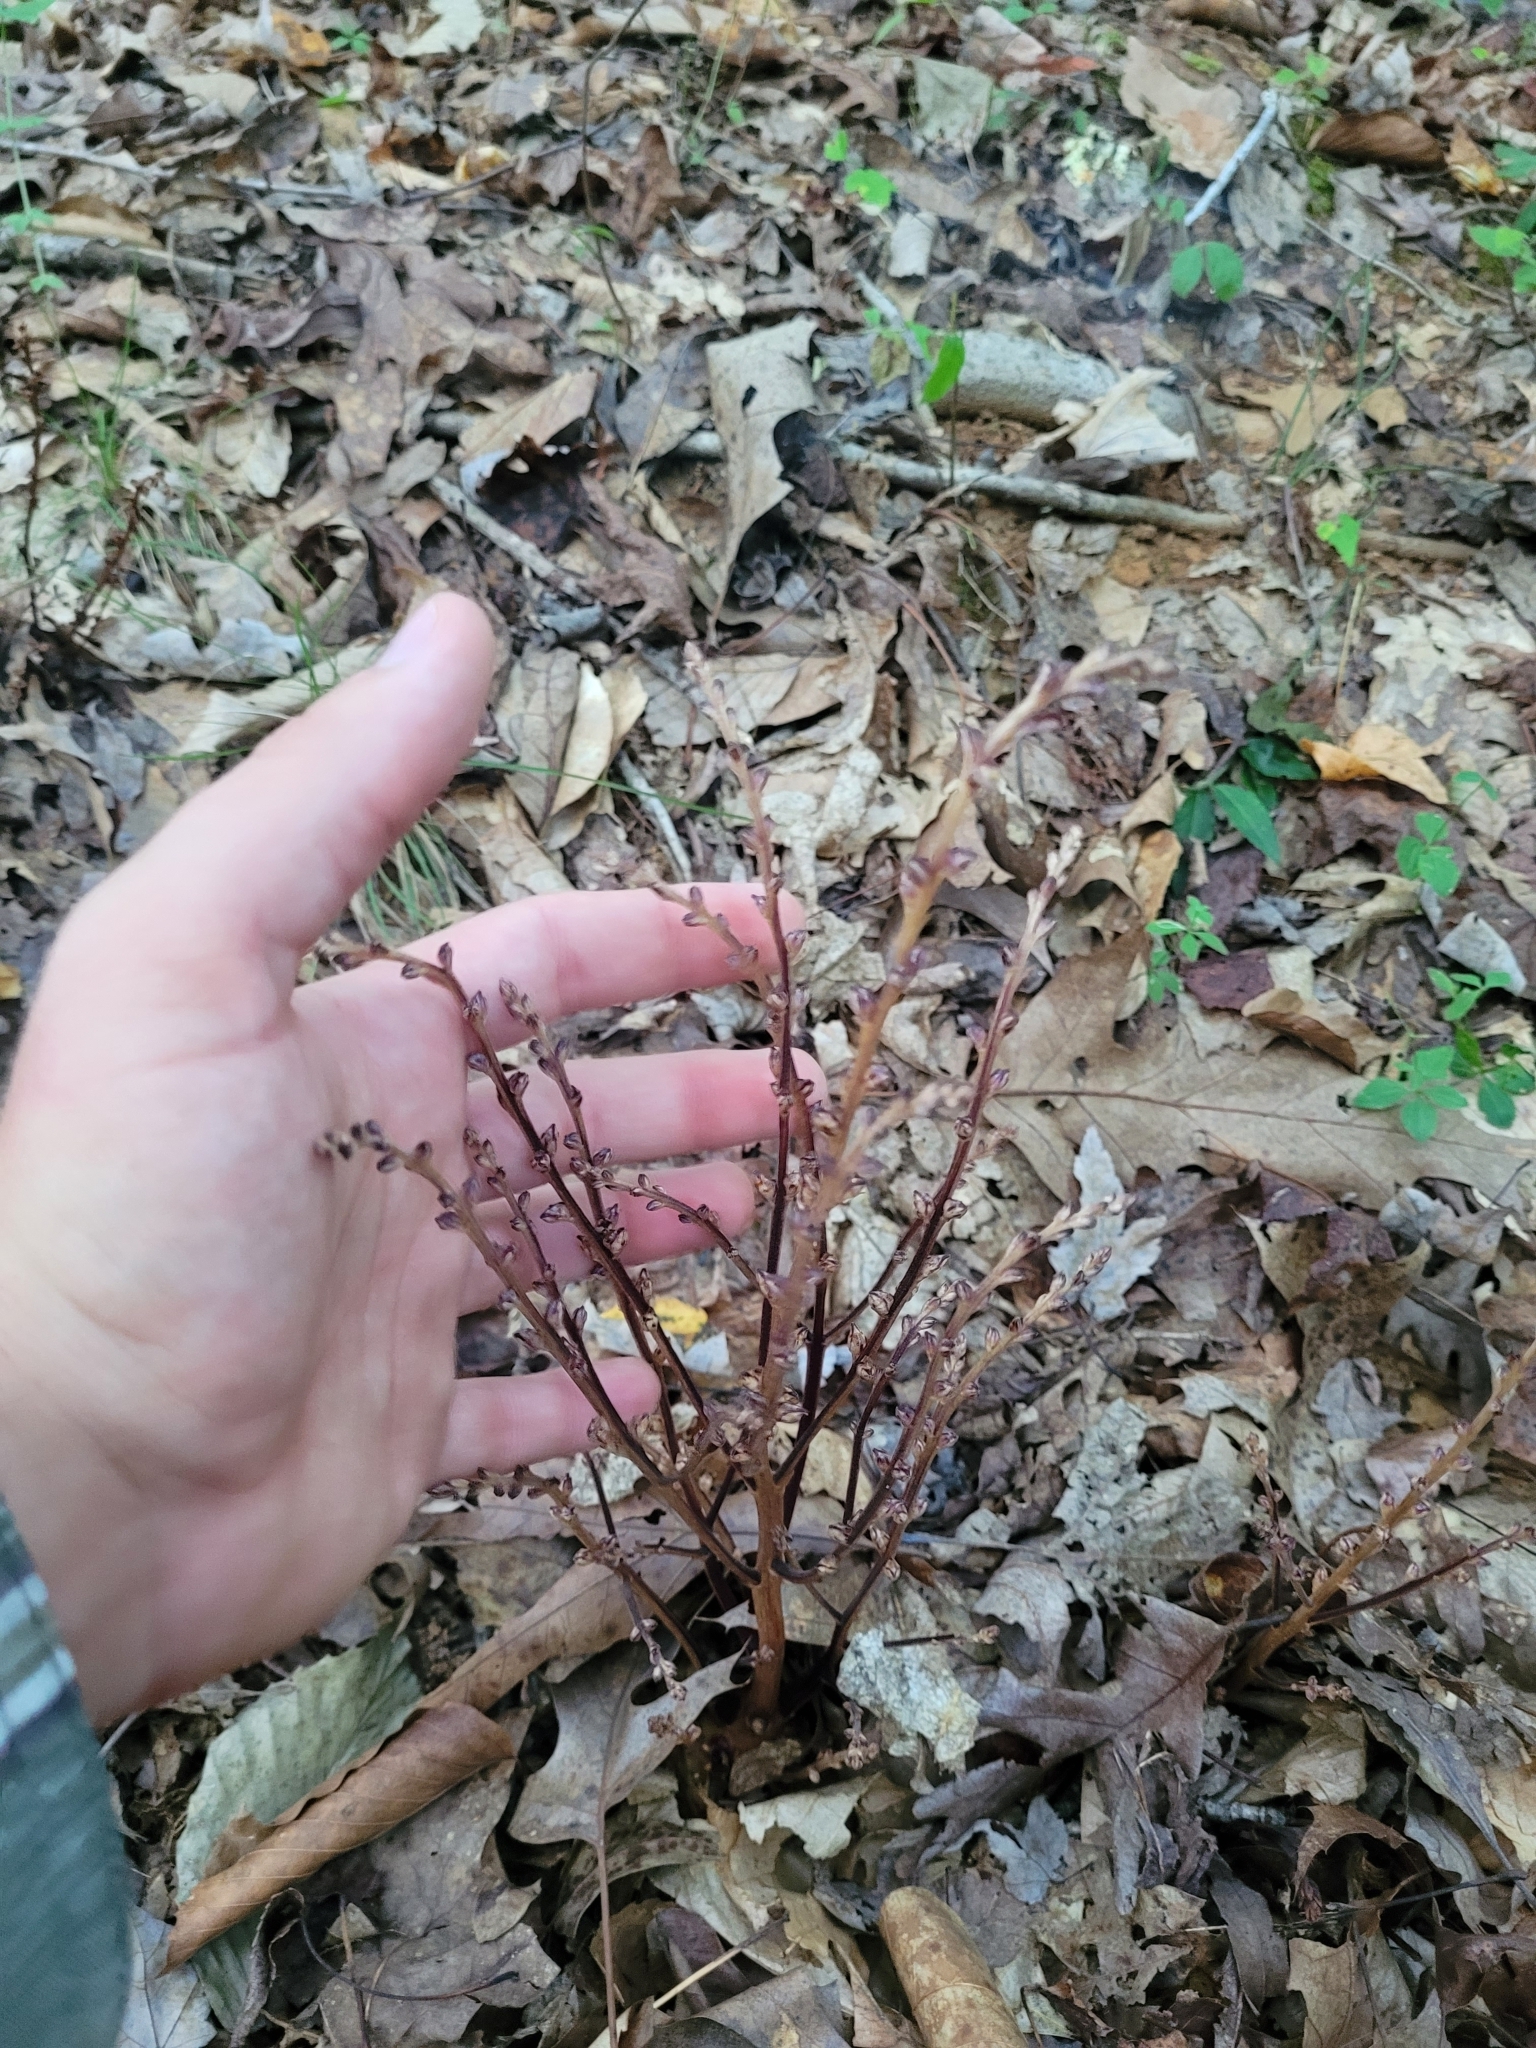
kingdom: Plantae
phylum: Tracheophyta
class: Magnoliopsida
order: Lamiales
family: Orobanchaceae
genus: Epifagus
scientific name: Epifagus virginiana
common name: Beechdrops
